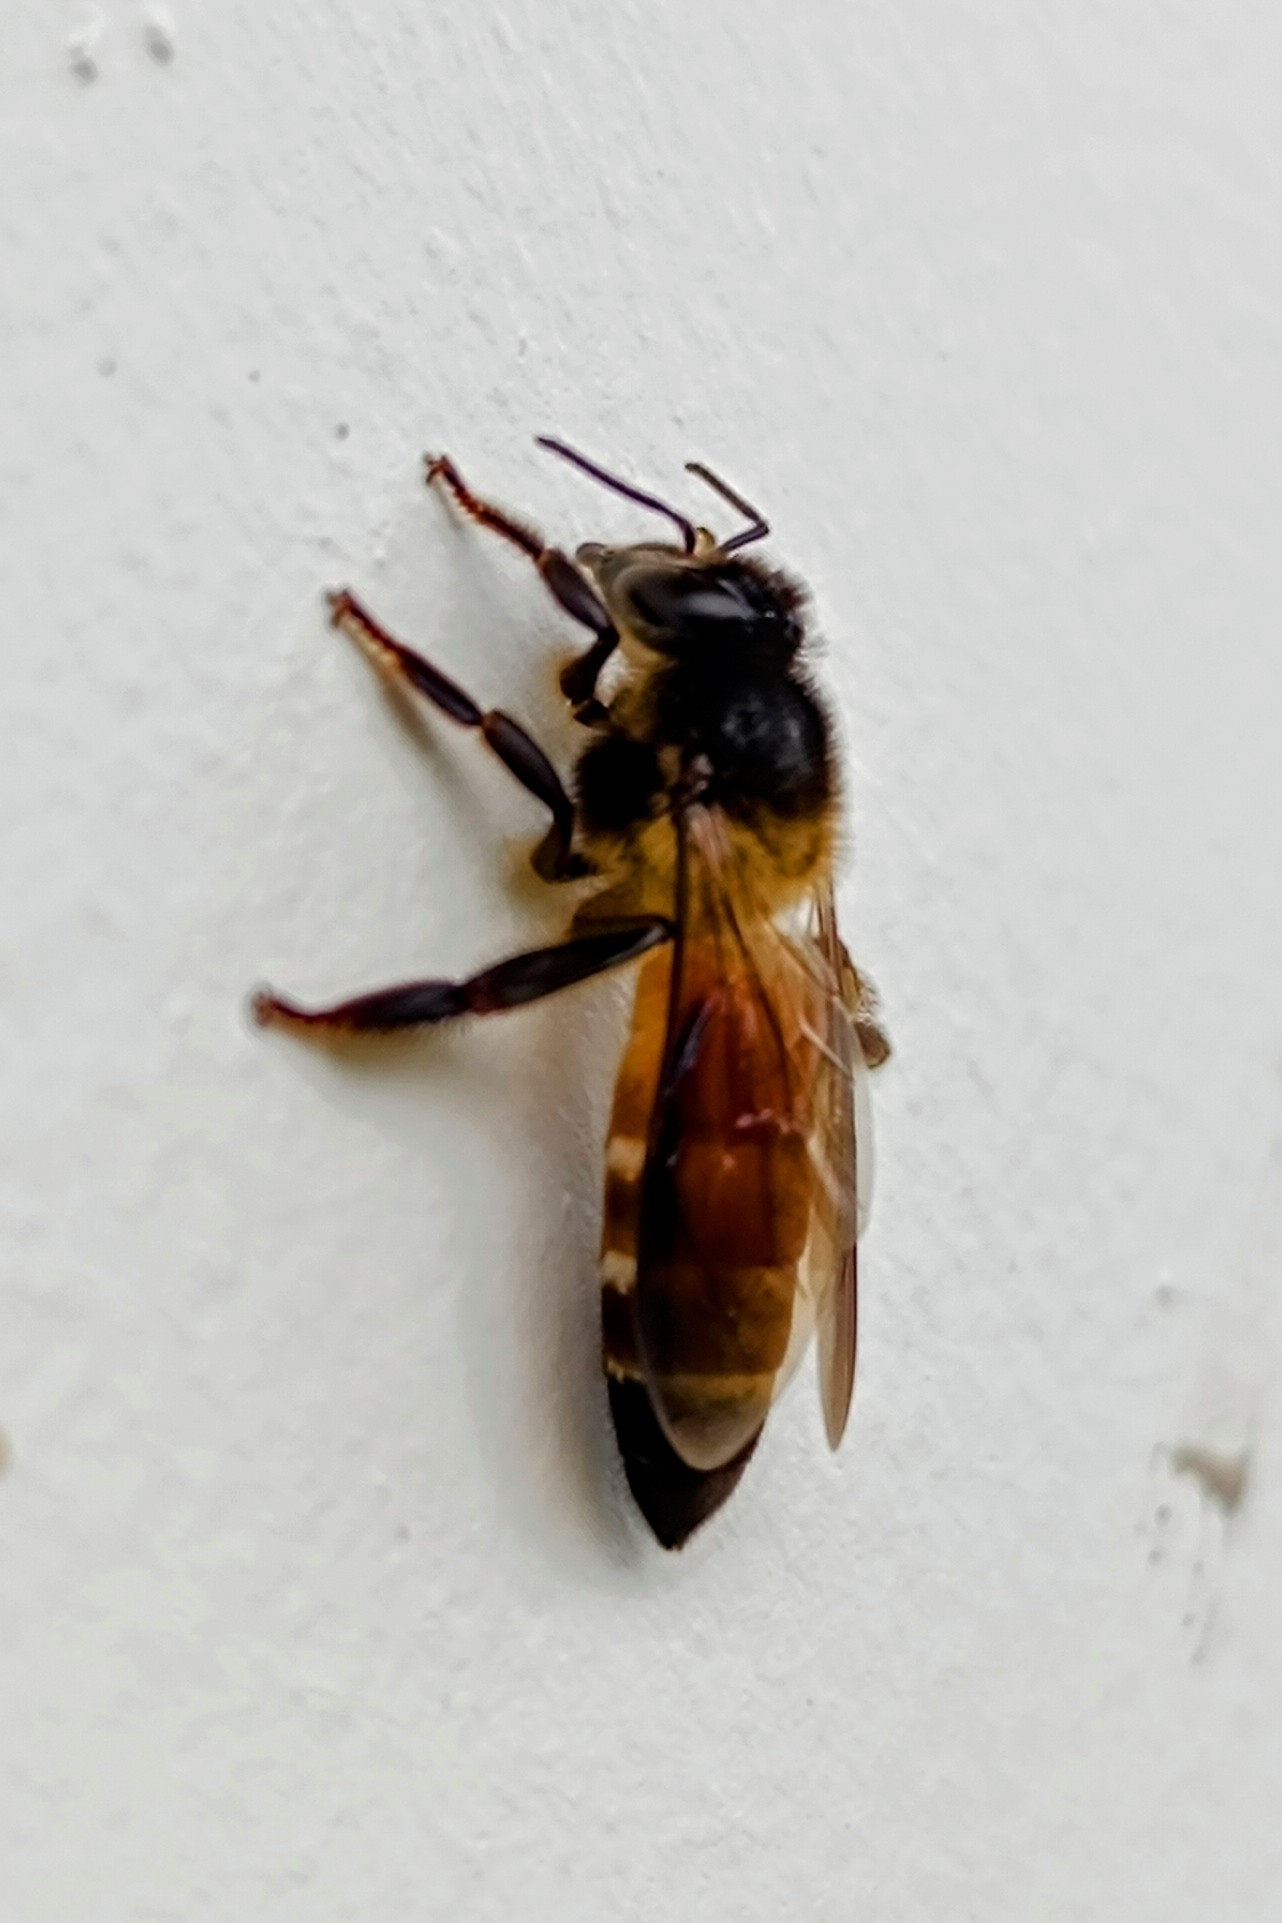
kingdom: Animalia
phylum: Arthropoda
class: Insecta
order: Hymenoptera
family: Apidae
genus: Apis
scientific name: Apis dorsata
